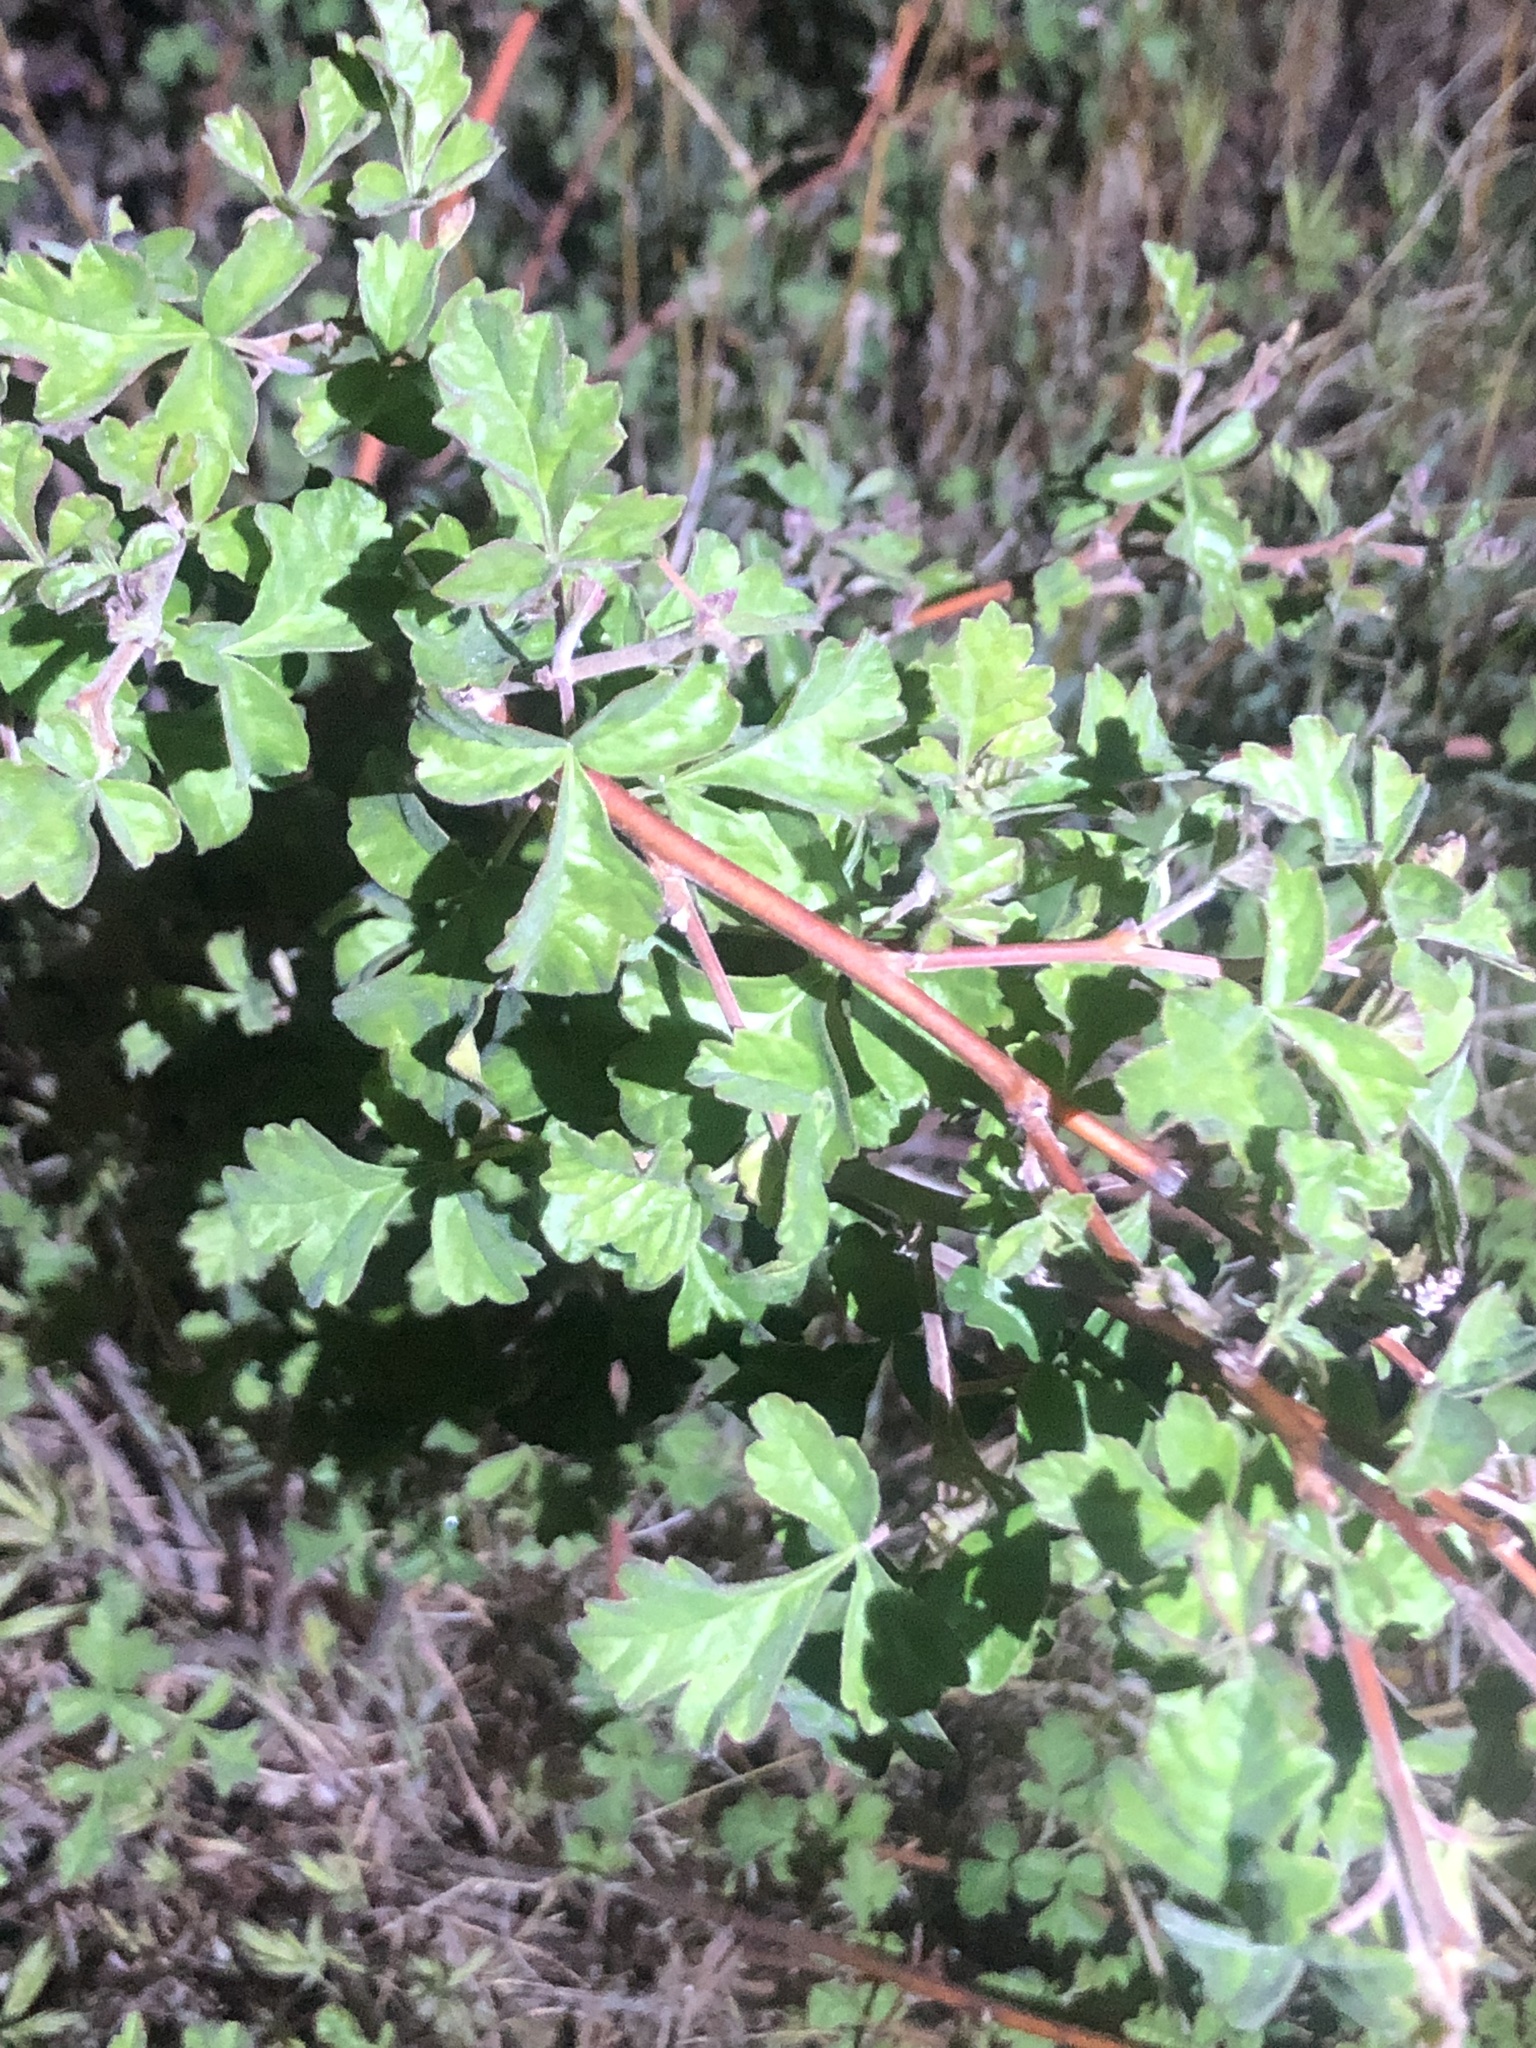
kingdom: Plantae
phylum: Tracheophyta
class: Magnoliopsida
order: Sapindales
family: Anacardiaceae
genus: Rhus
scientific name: Rhus aromatica
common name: Aromatic sumac
